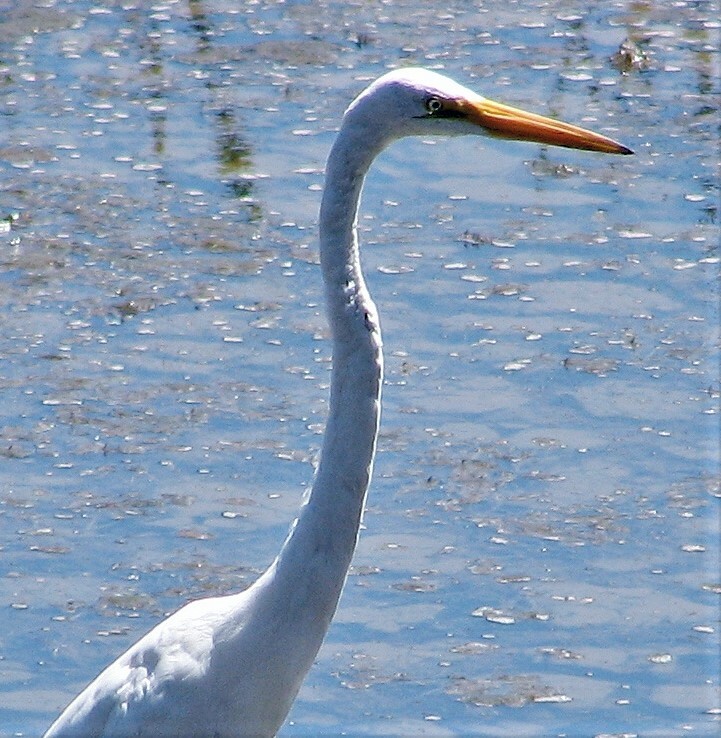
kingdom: Animalia
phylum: Chordata
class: Aves
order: Pelecaniformes
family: Ardeidae
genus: Ardea
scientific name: Ardea alba
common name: Great egret
